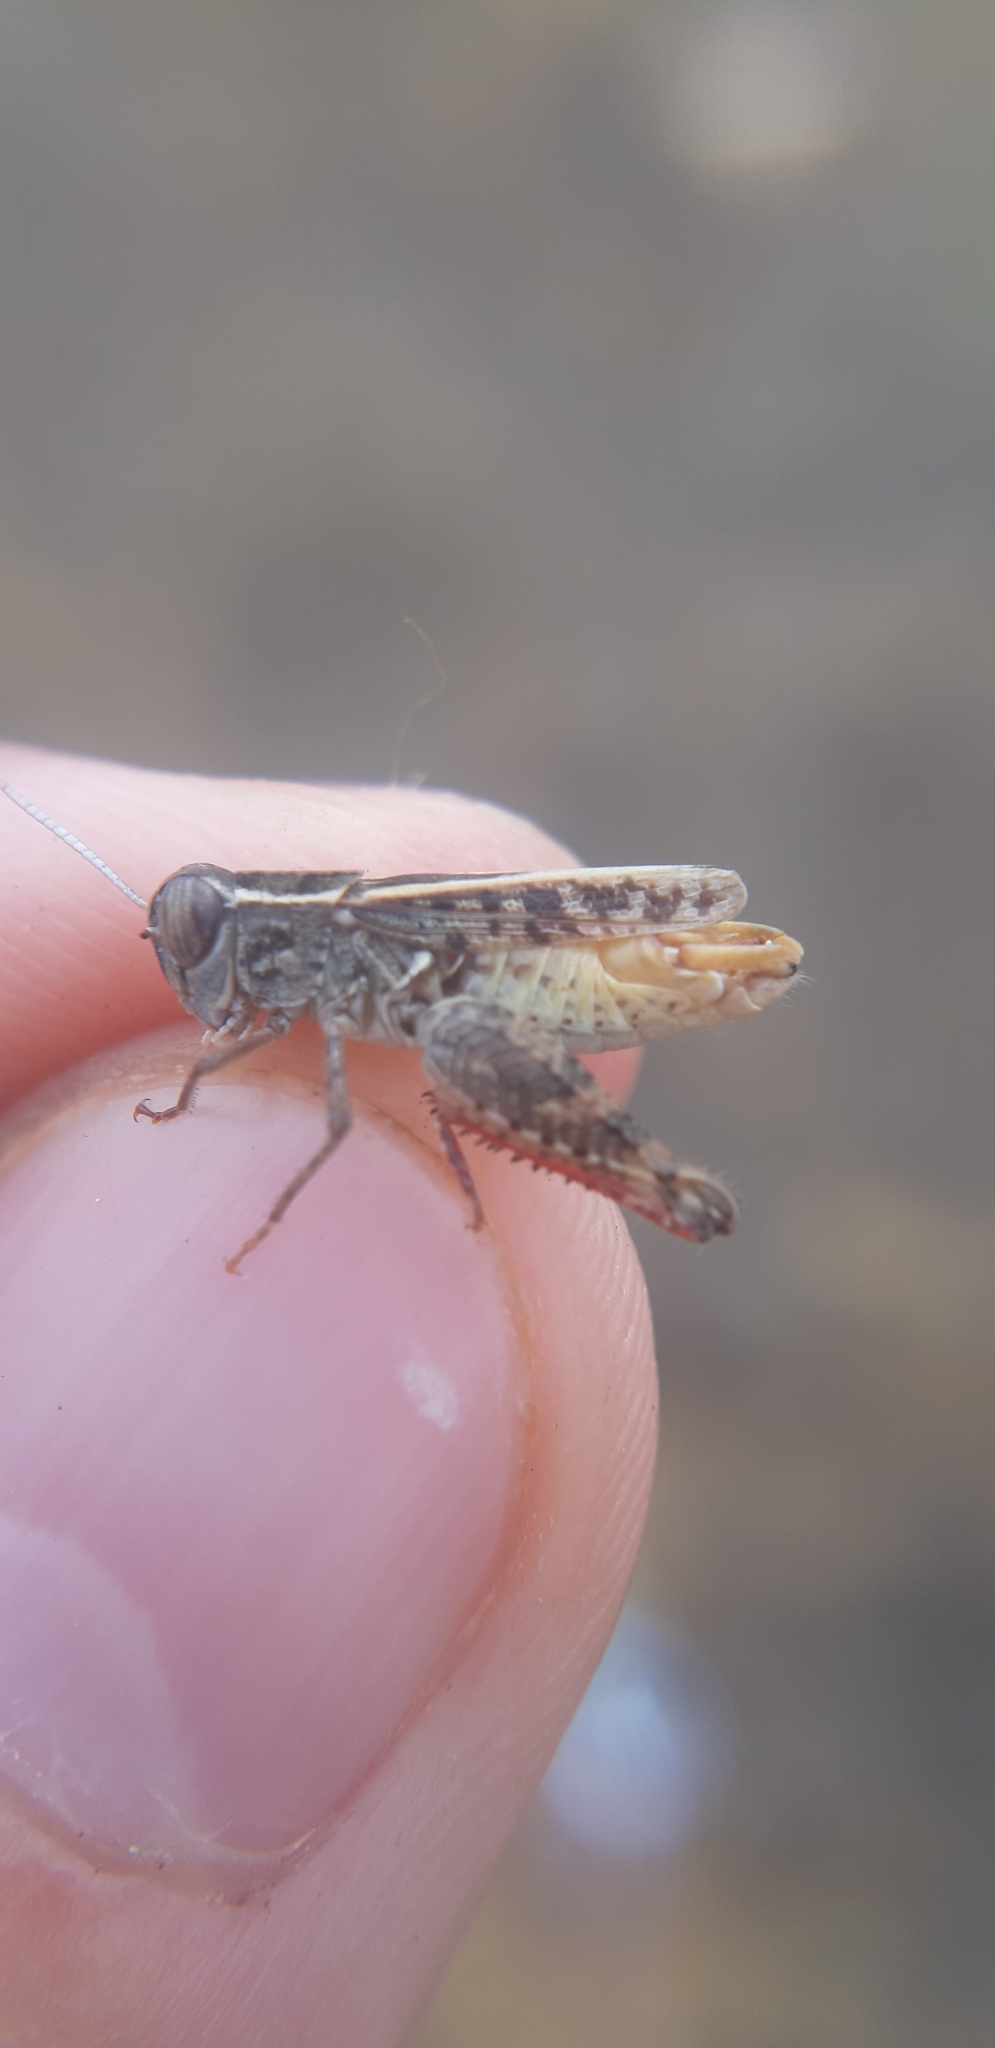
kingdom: Animalia
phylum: Arthropoda
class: Insecta
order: Orthoptera
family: Acrididae
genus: Calliptamus
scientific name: Calliptamus siciliae
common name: Pygmy pincer grasshopper
